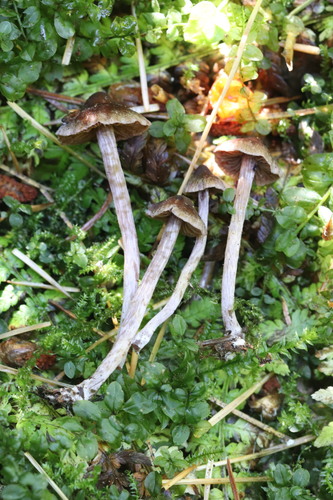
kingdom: Fungi
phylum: Basidiomycota
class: Agaricomycetes
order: Agaricales
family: Cortinariaceae
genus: Cortinarius
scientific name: Cortinarius flexipes
